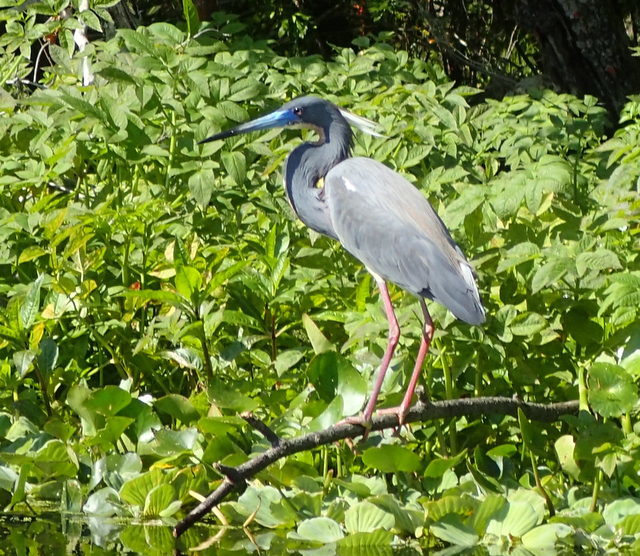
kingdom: Animalia
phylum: Chordata
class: Aves
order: Pelecaniformes
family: Ardeidae
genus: Egretta
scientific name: Egretta tricolor
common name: Tricolored heron
